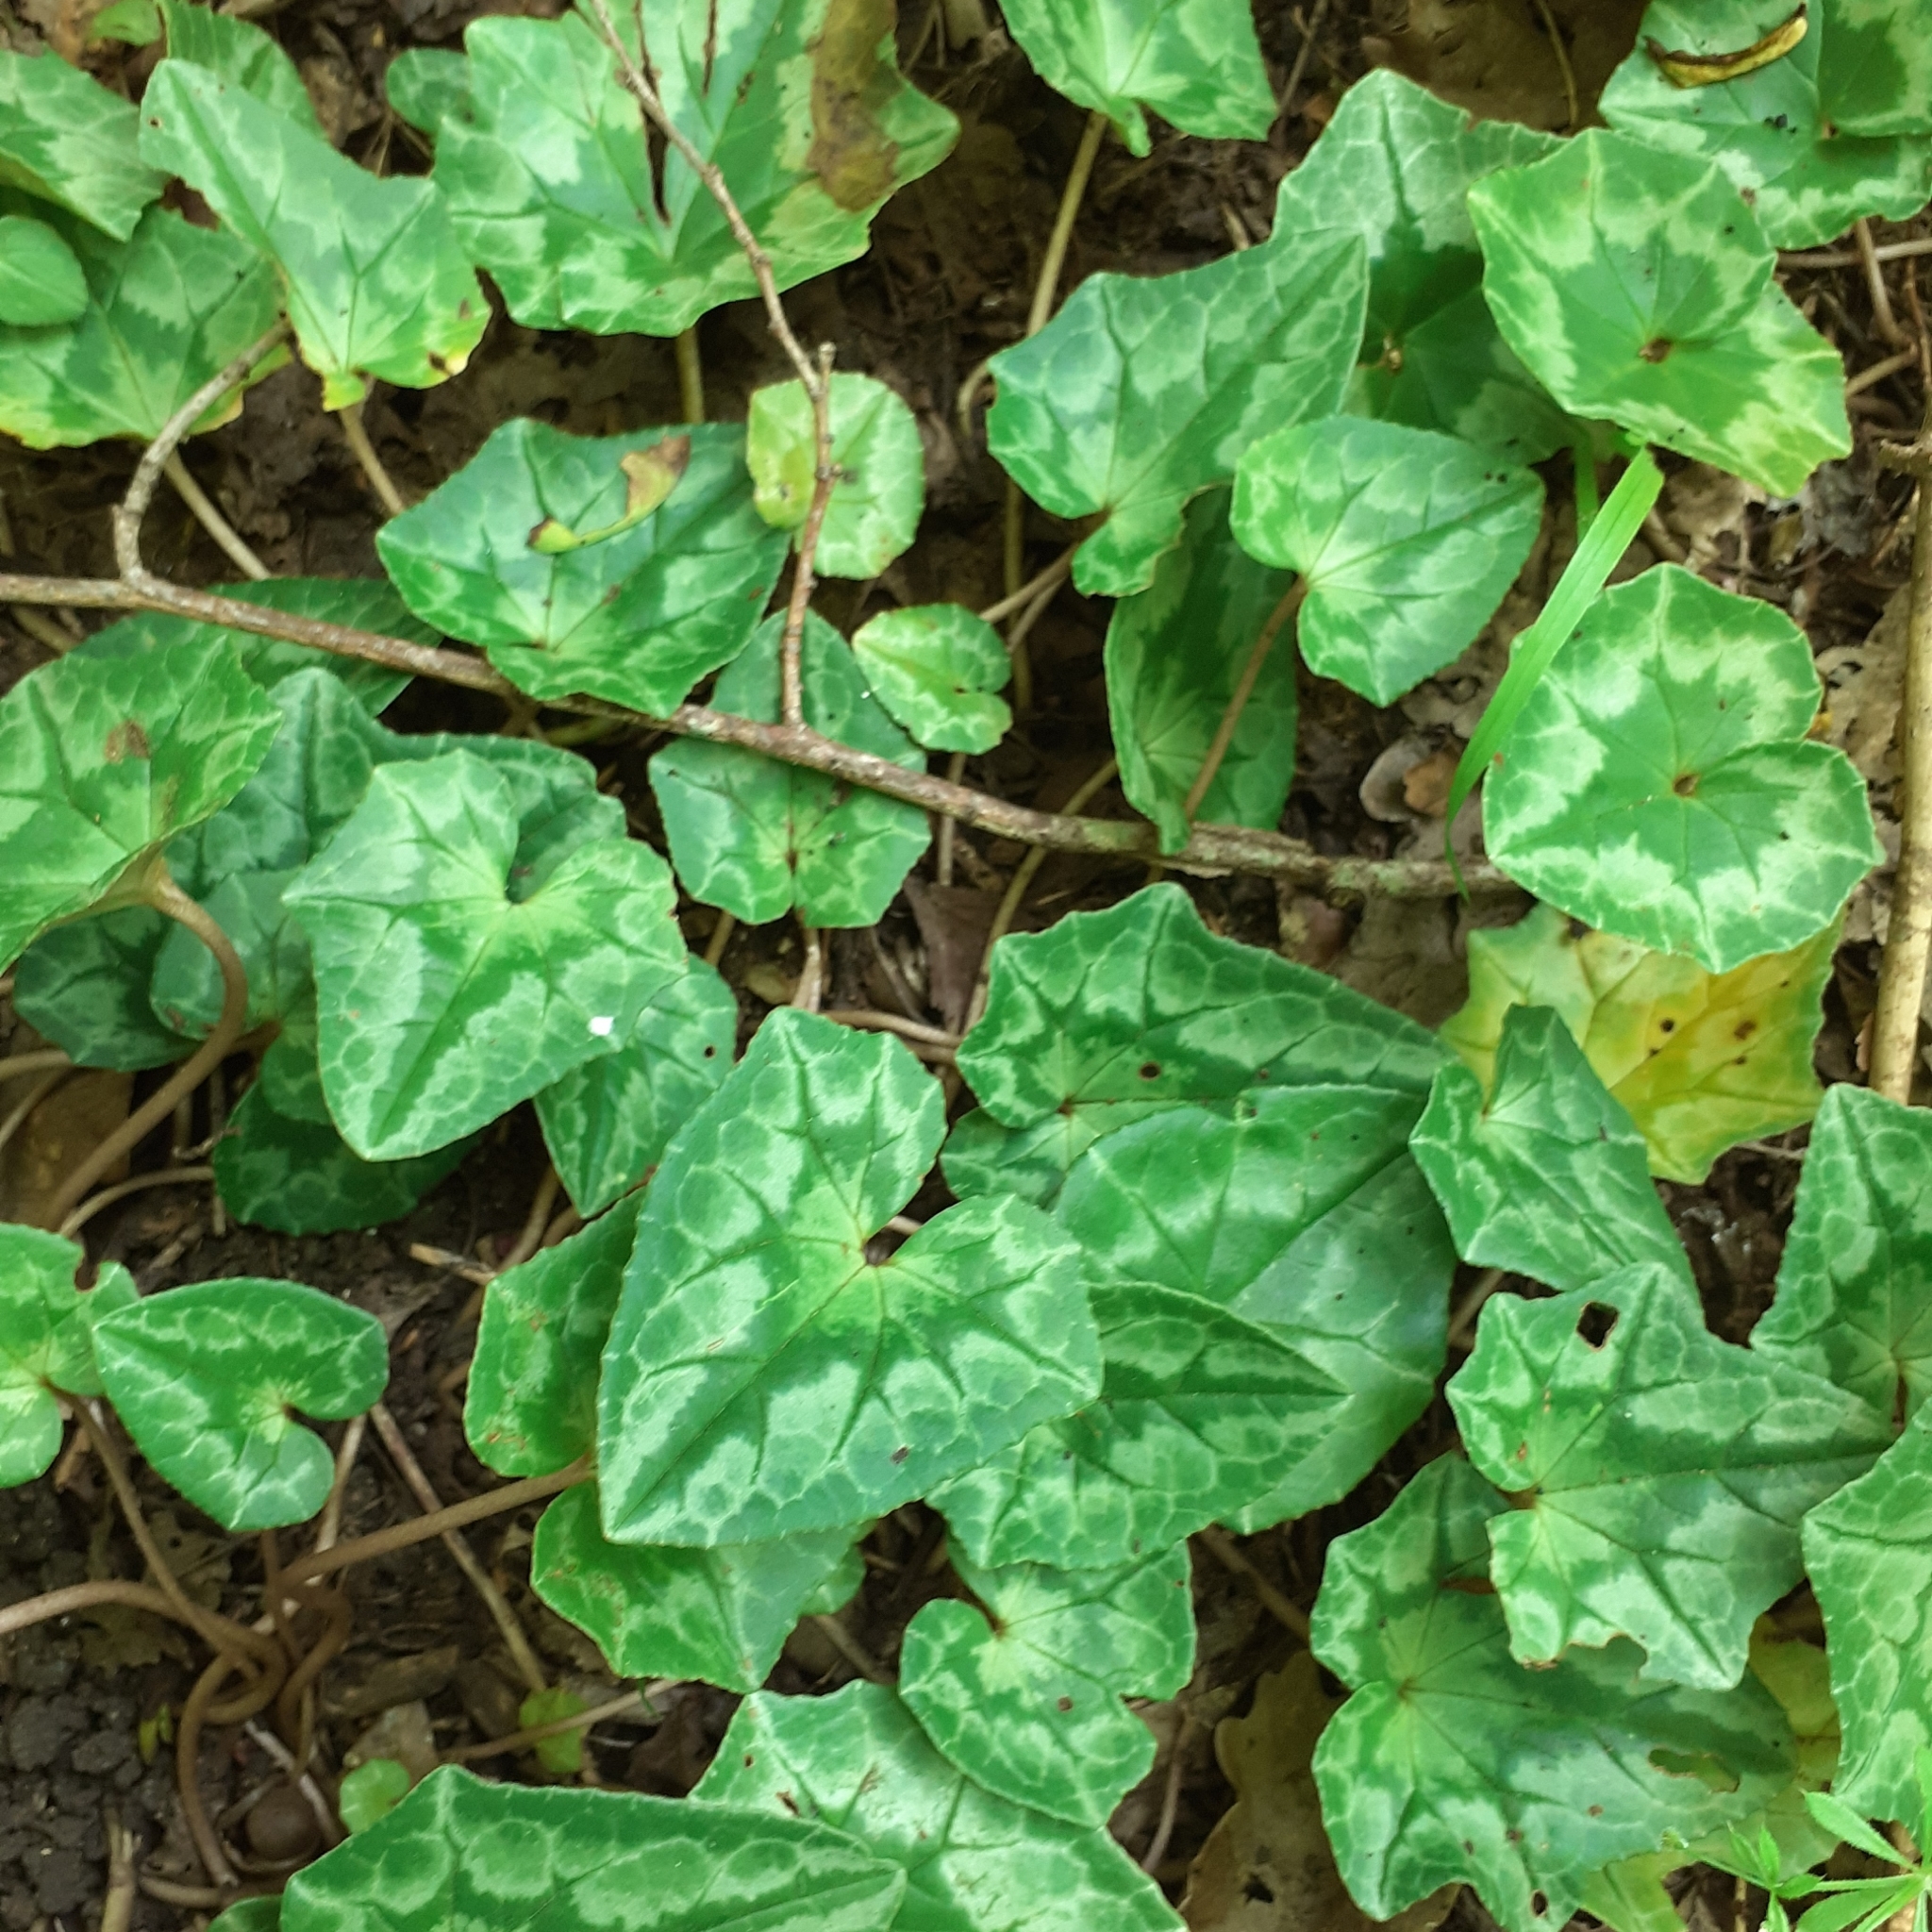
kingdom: Plantae
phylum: Tracheophyta
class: Magnoliopsida
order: Ericales
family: Primulaceae
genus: Cyclamen
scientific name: Cyclamen hederifolium
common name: Sowbread
